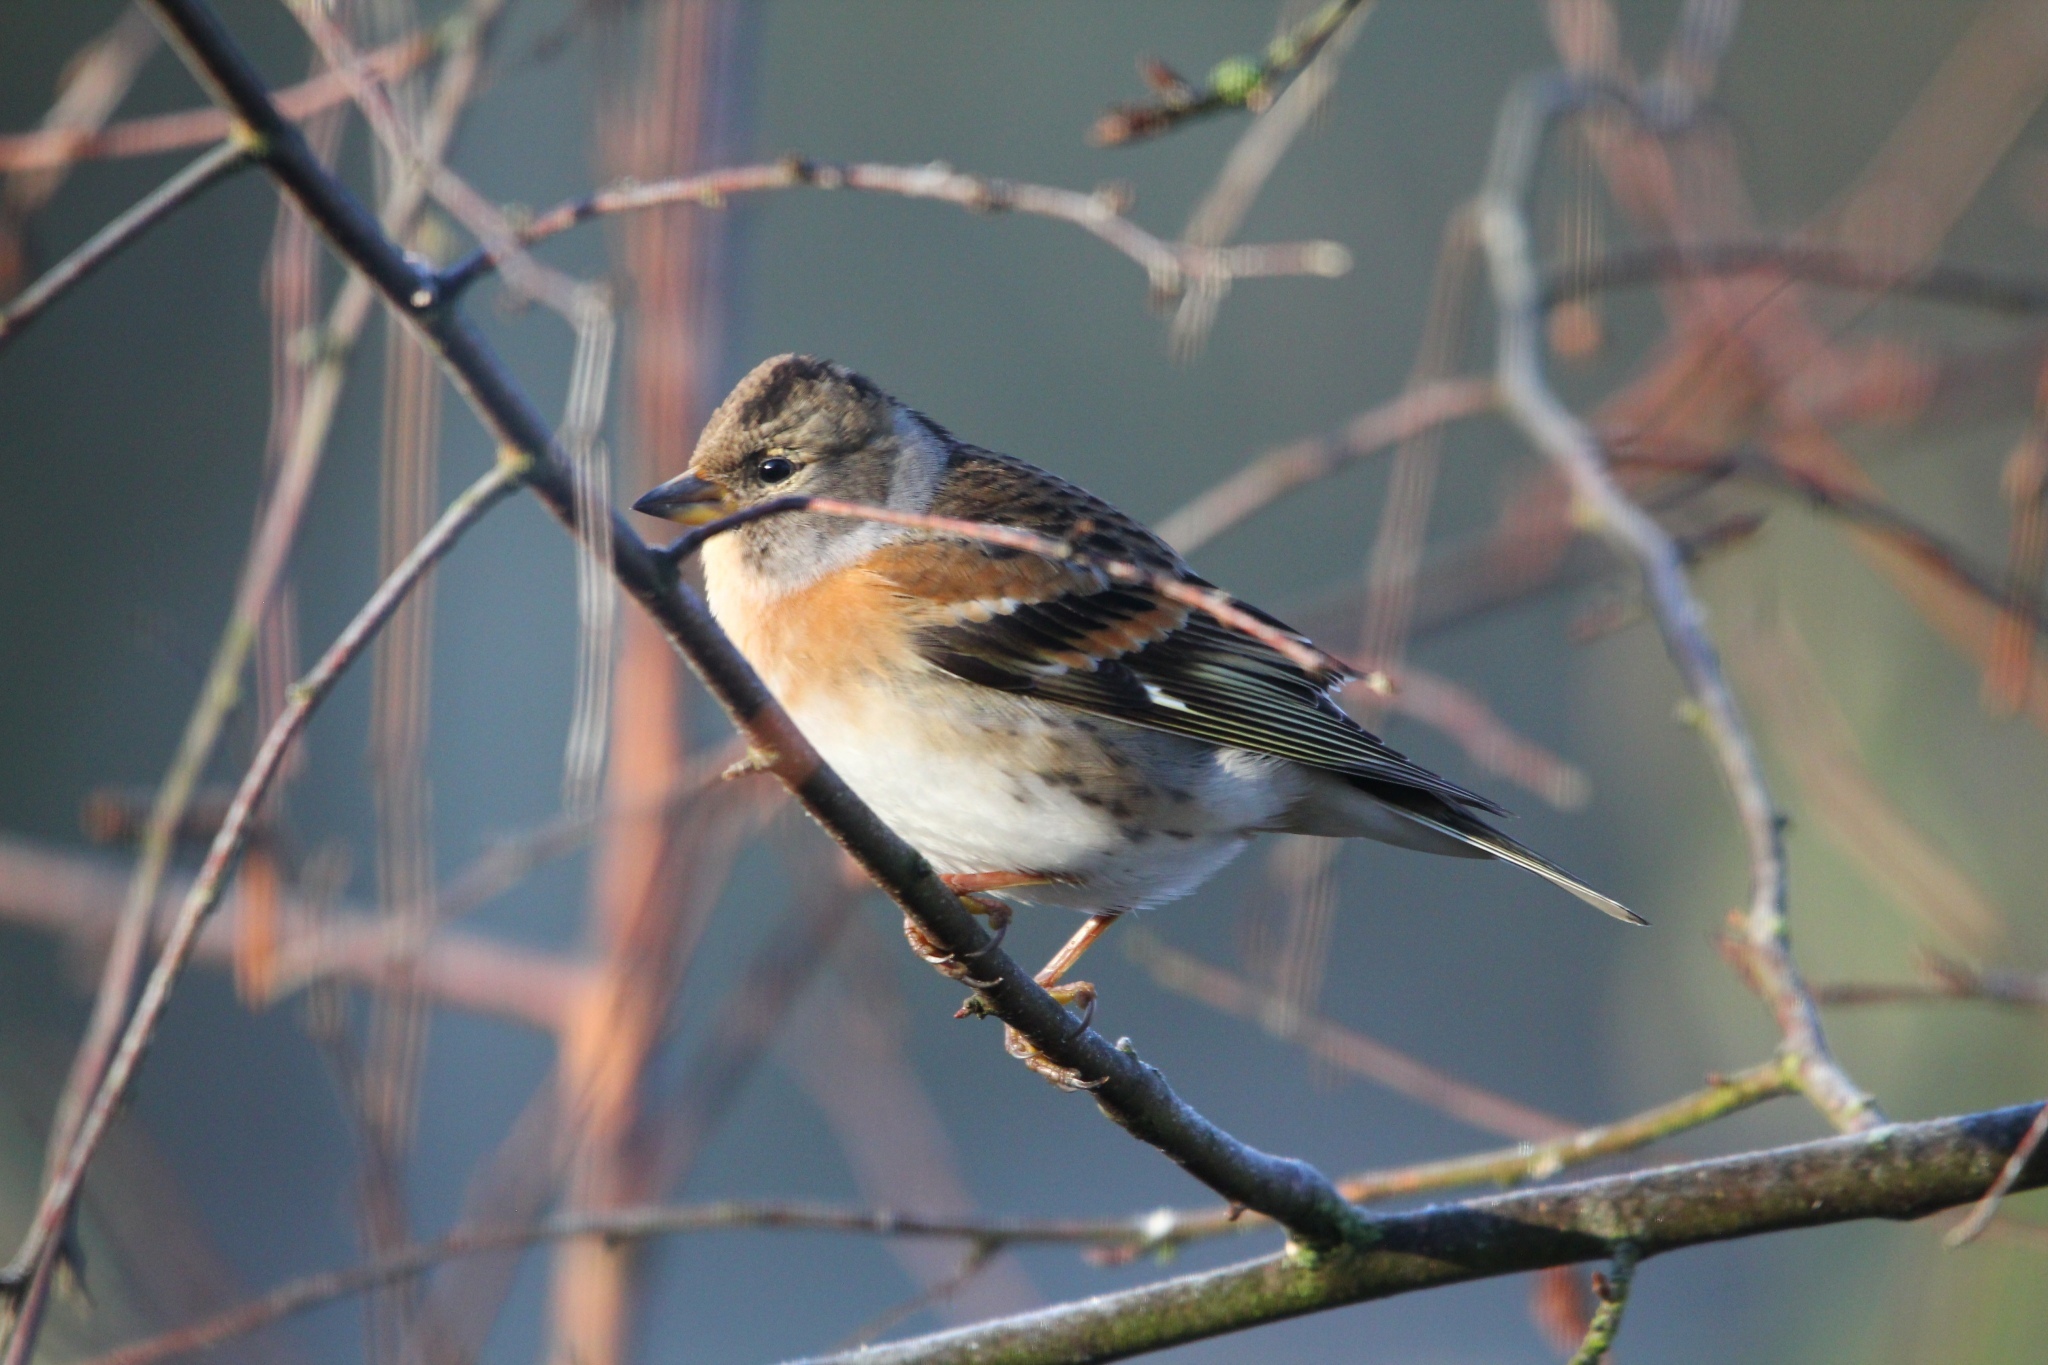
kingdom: Animalia
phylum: Chordata
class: Aves
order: Passeriformes
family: Fringillidae
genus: Fringilla
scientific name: Fringilla montifringilla
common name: Brambling
